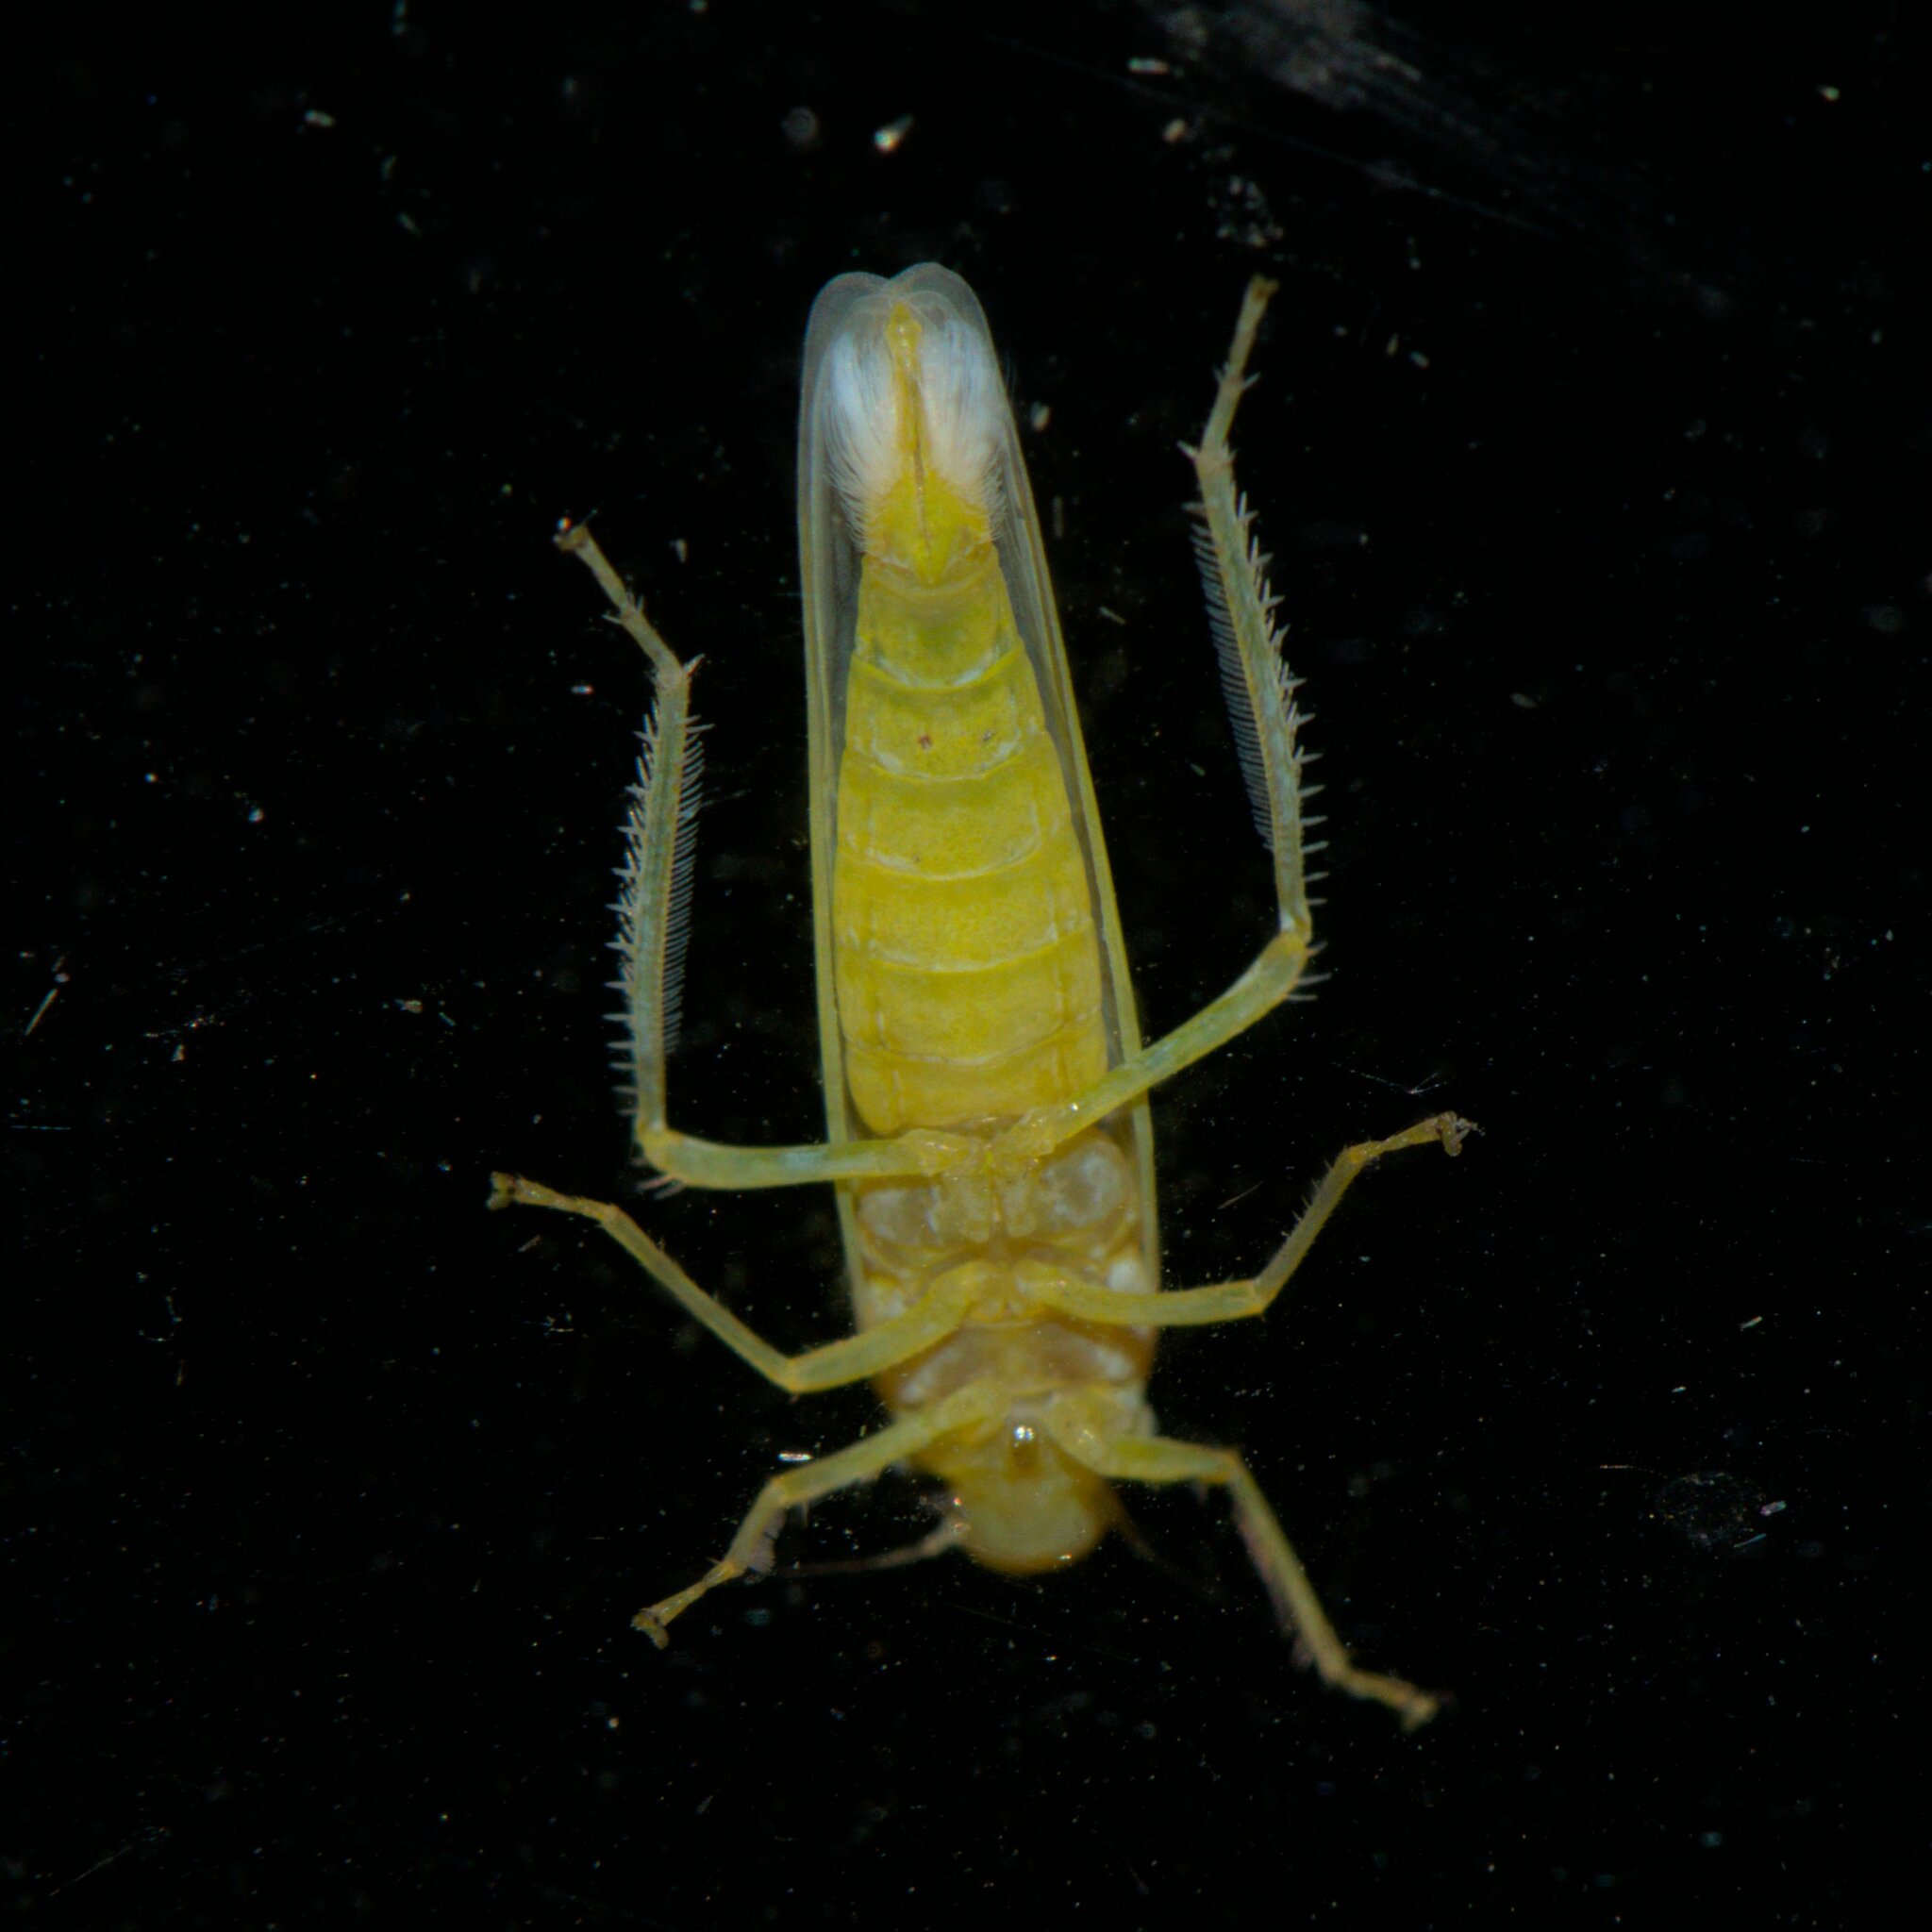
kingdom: Animalia
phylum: Arthropoda
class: Insecta
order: Hemiptera
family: Cicadellidae
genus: Atkinsoniella
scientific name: Atkinsoniella thalia
